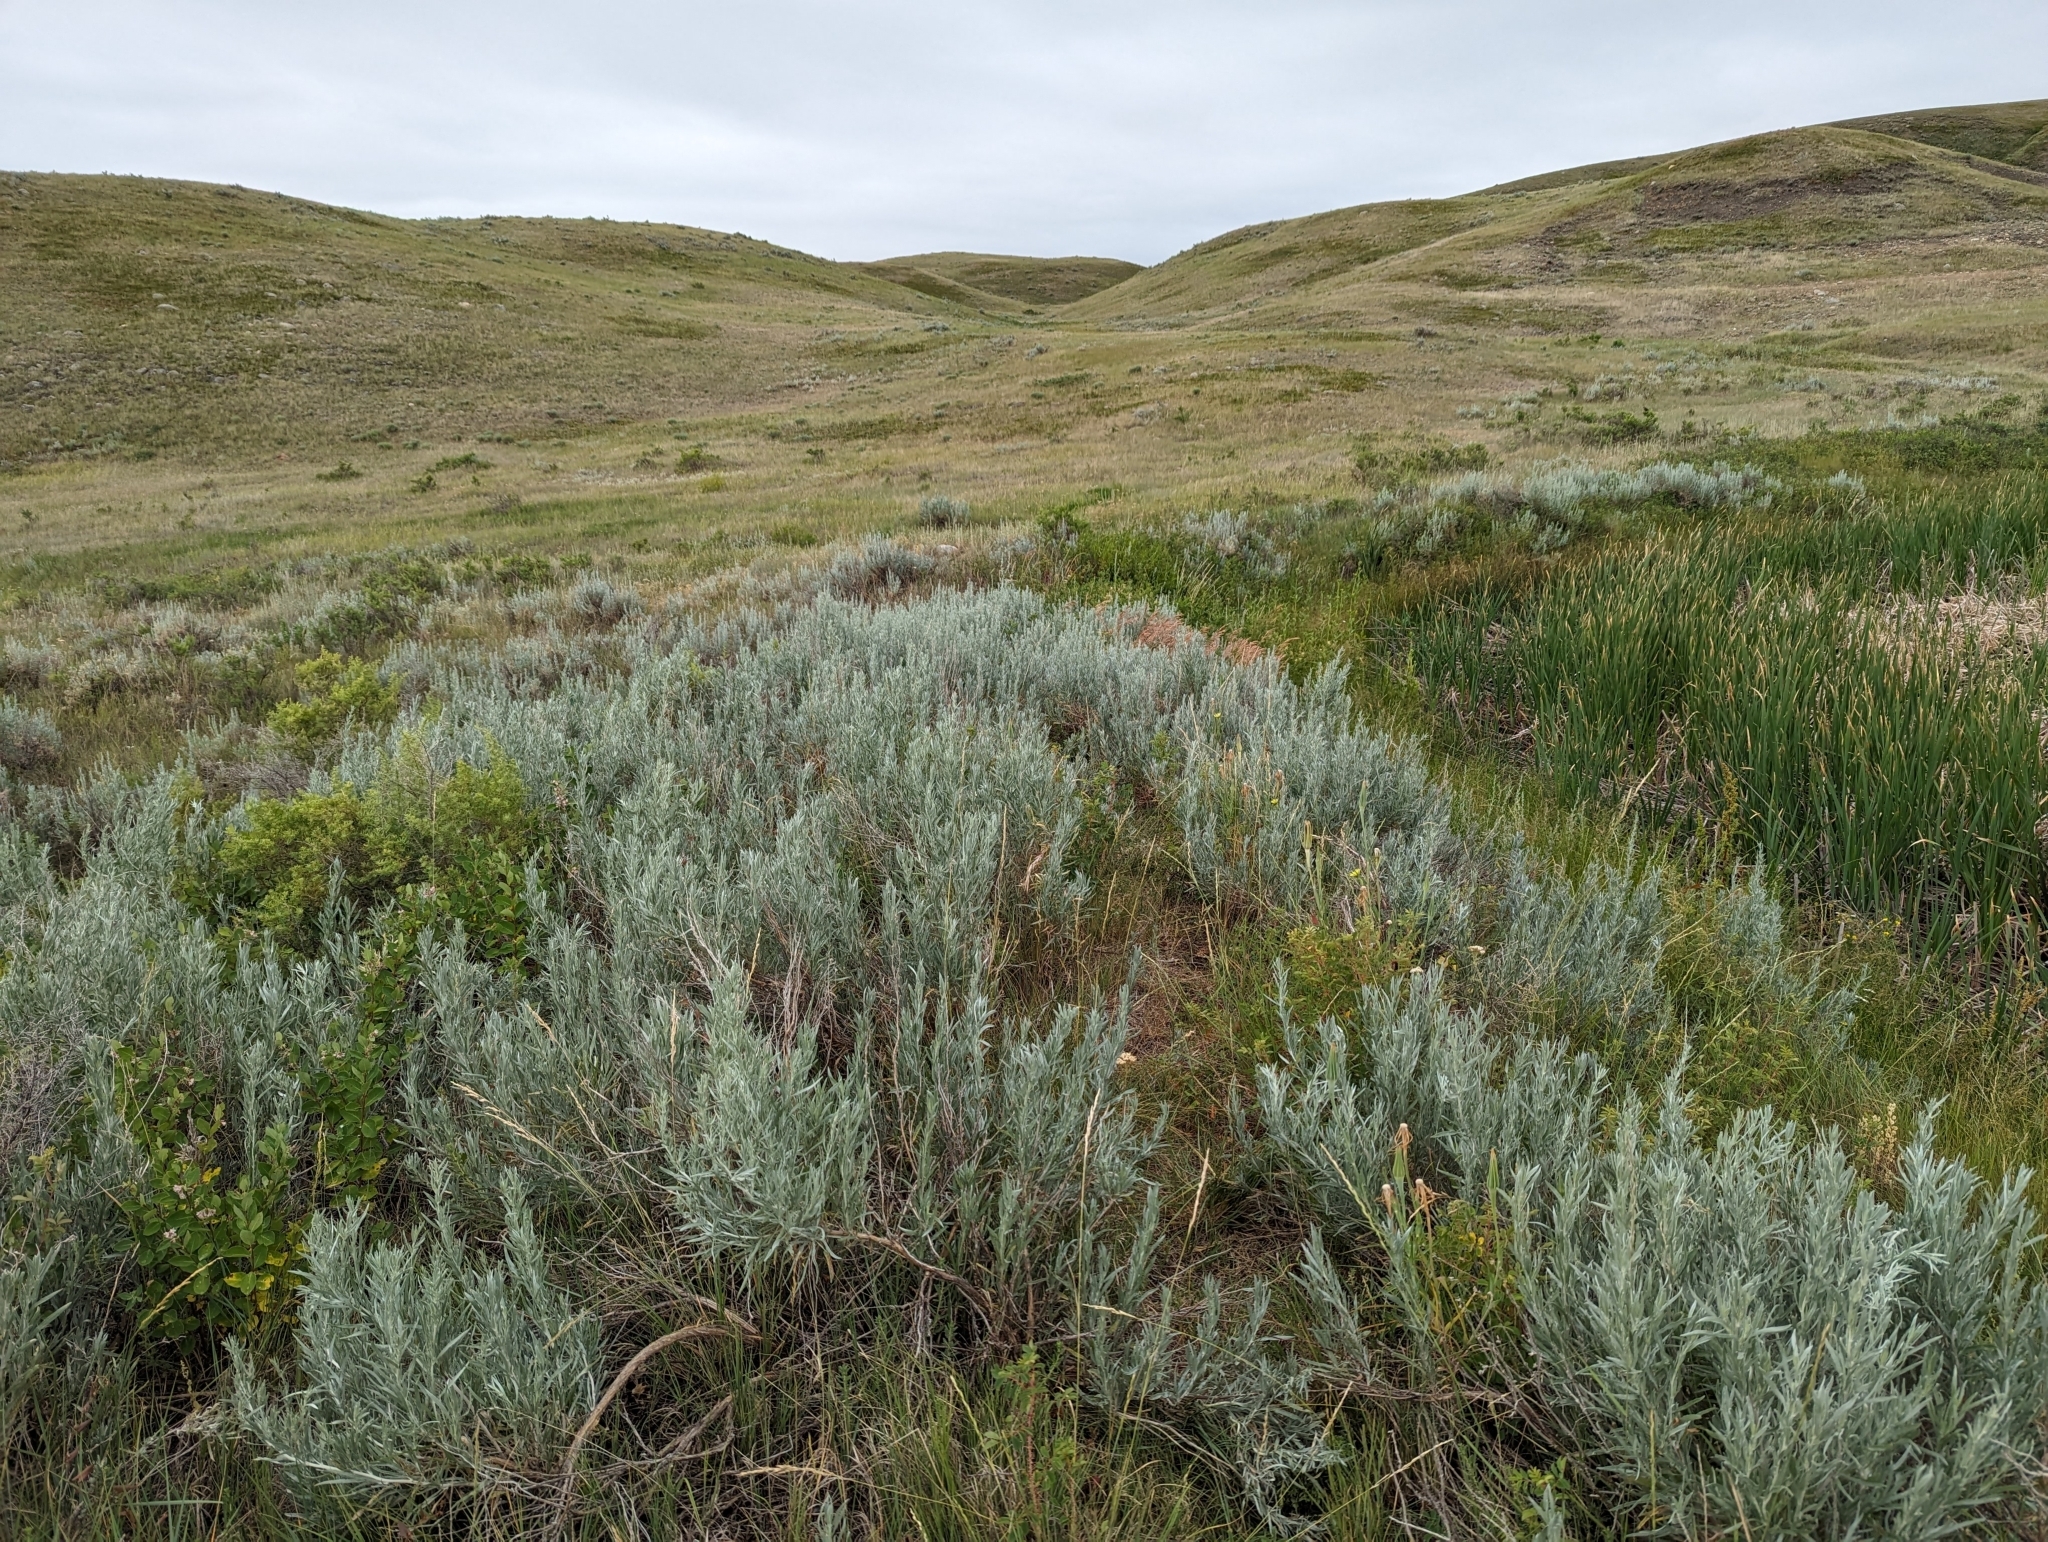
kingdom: Plantae
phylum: Tracheophyta
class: Magnoliopsida
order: Asterales
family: Asteraceae
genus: Artemisia
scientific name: Artemisia cana
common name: Silver sagebrush
